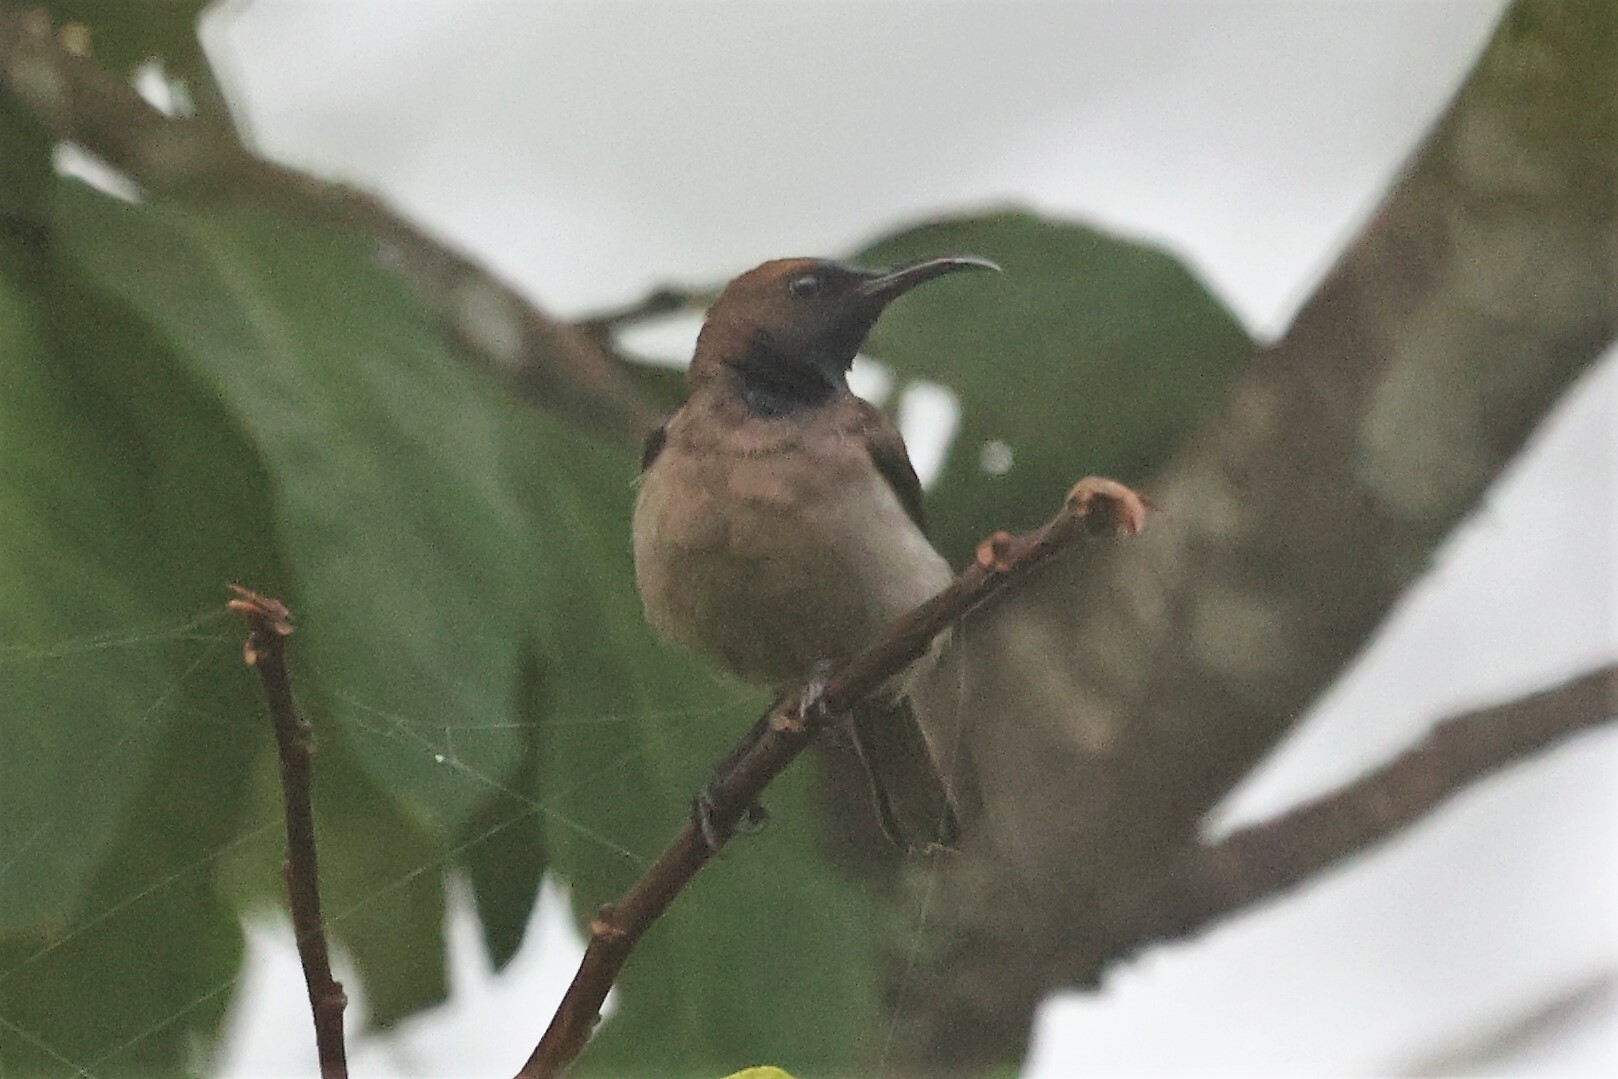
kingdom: Animalia
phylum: Chordata
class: Aves
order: Passeriformes
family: Nectariniidae
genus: Cyanomitra
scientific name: Cyanomitra cyanolaema
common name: Blue-throated brown sunbird
